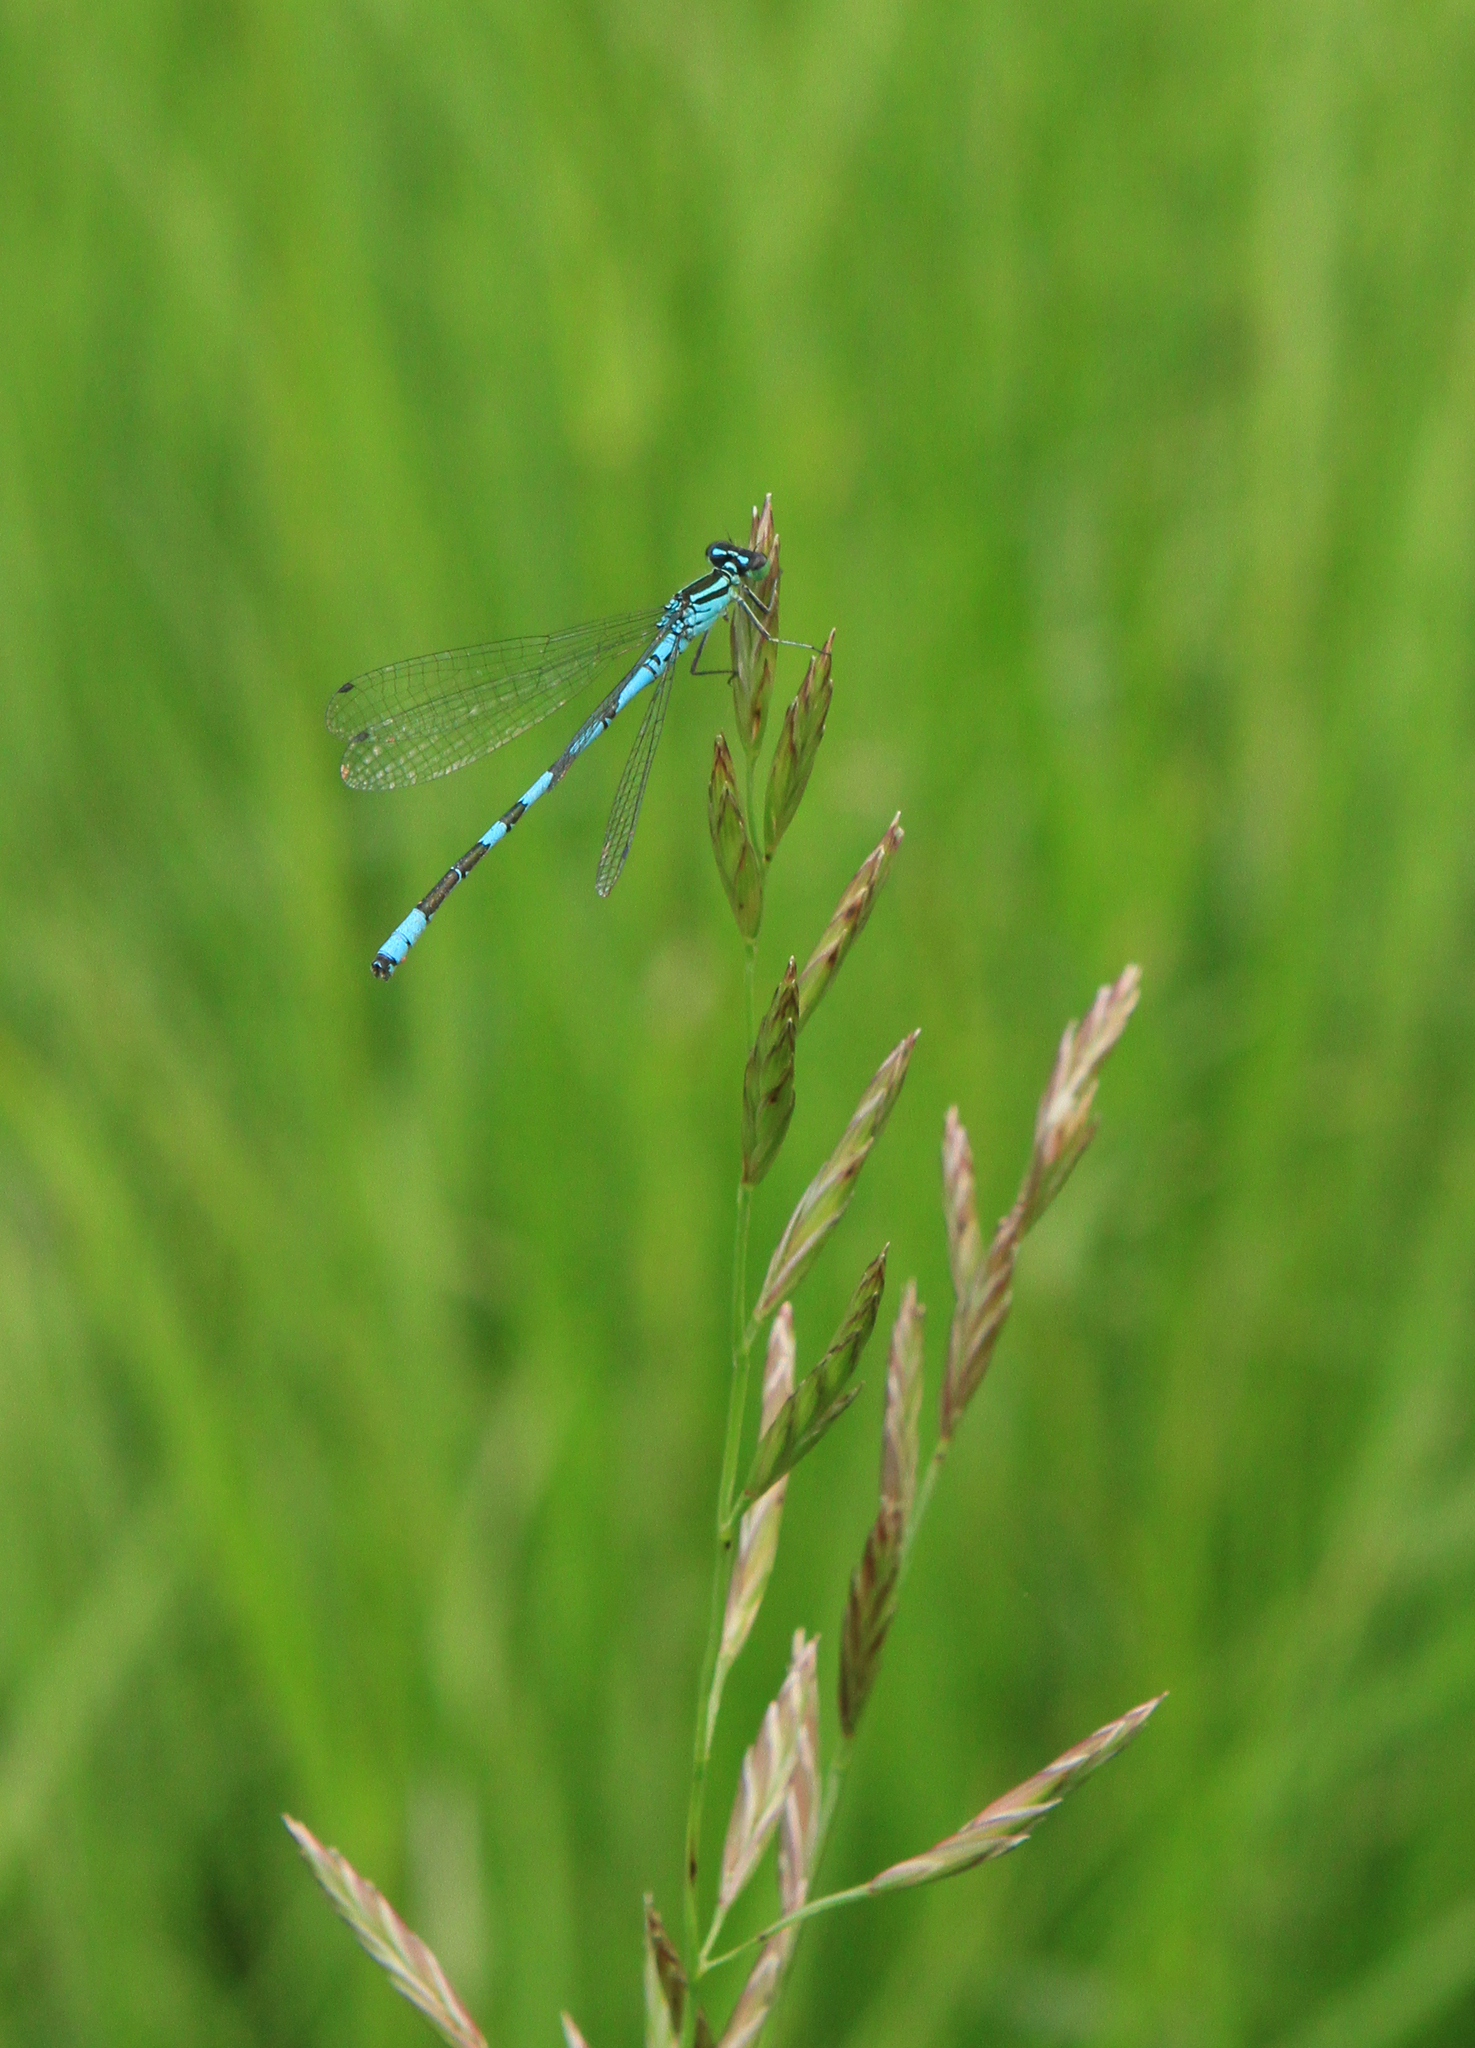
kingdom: Animalia
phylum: Arthropoda
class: Insecta
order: Odonata
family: Coenagrionidae
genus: Coenagrion
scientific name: Coenagrion hastulatum
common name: Spearhead bluet
